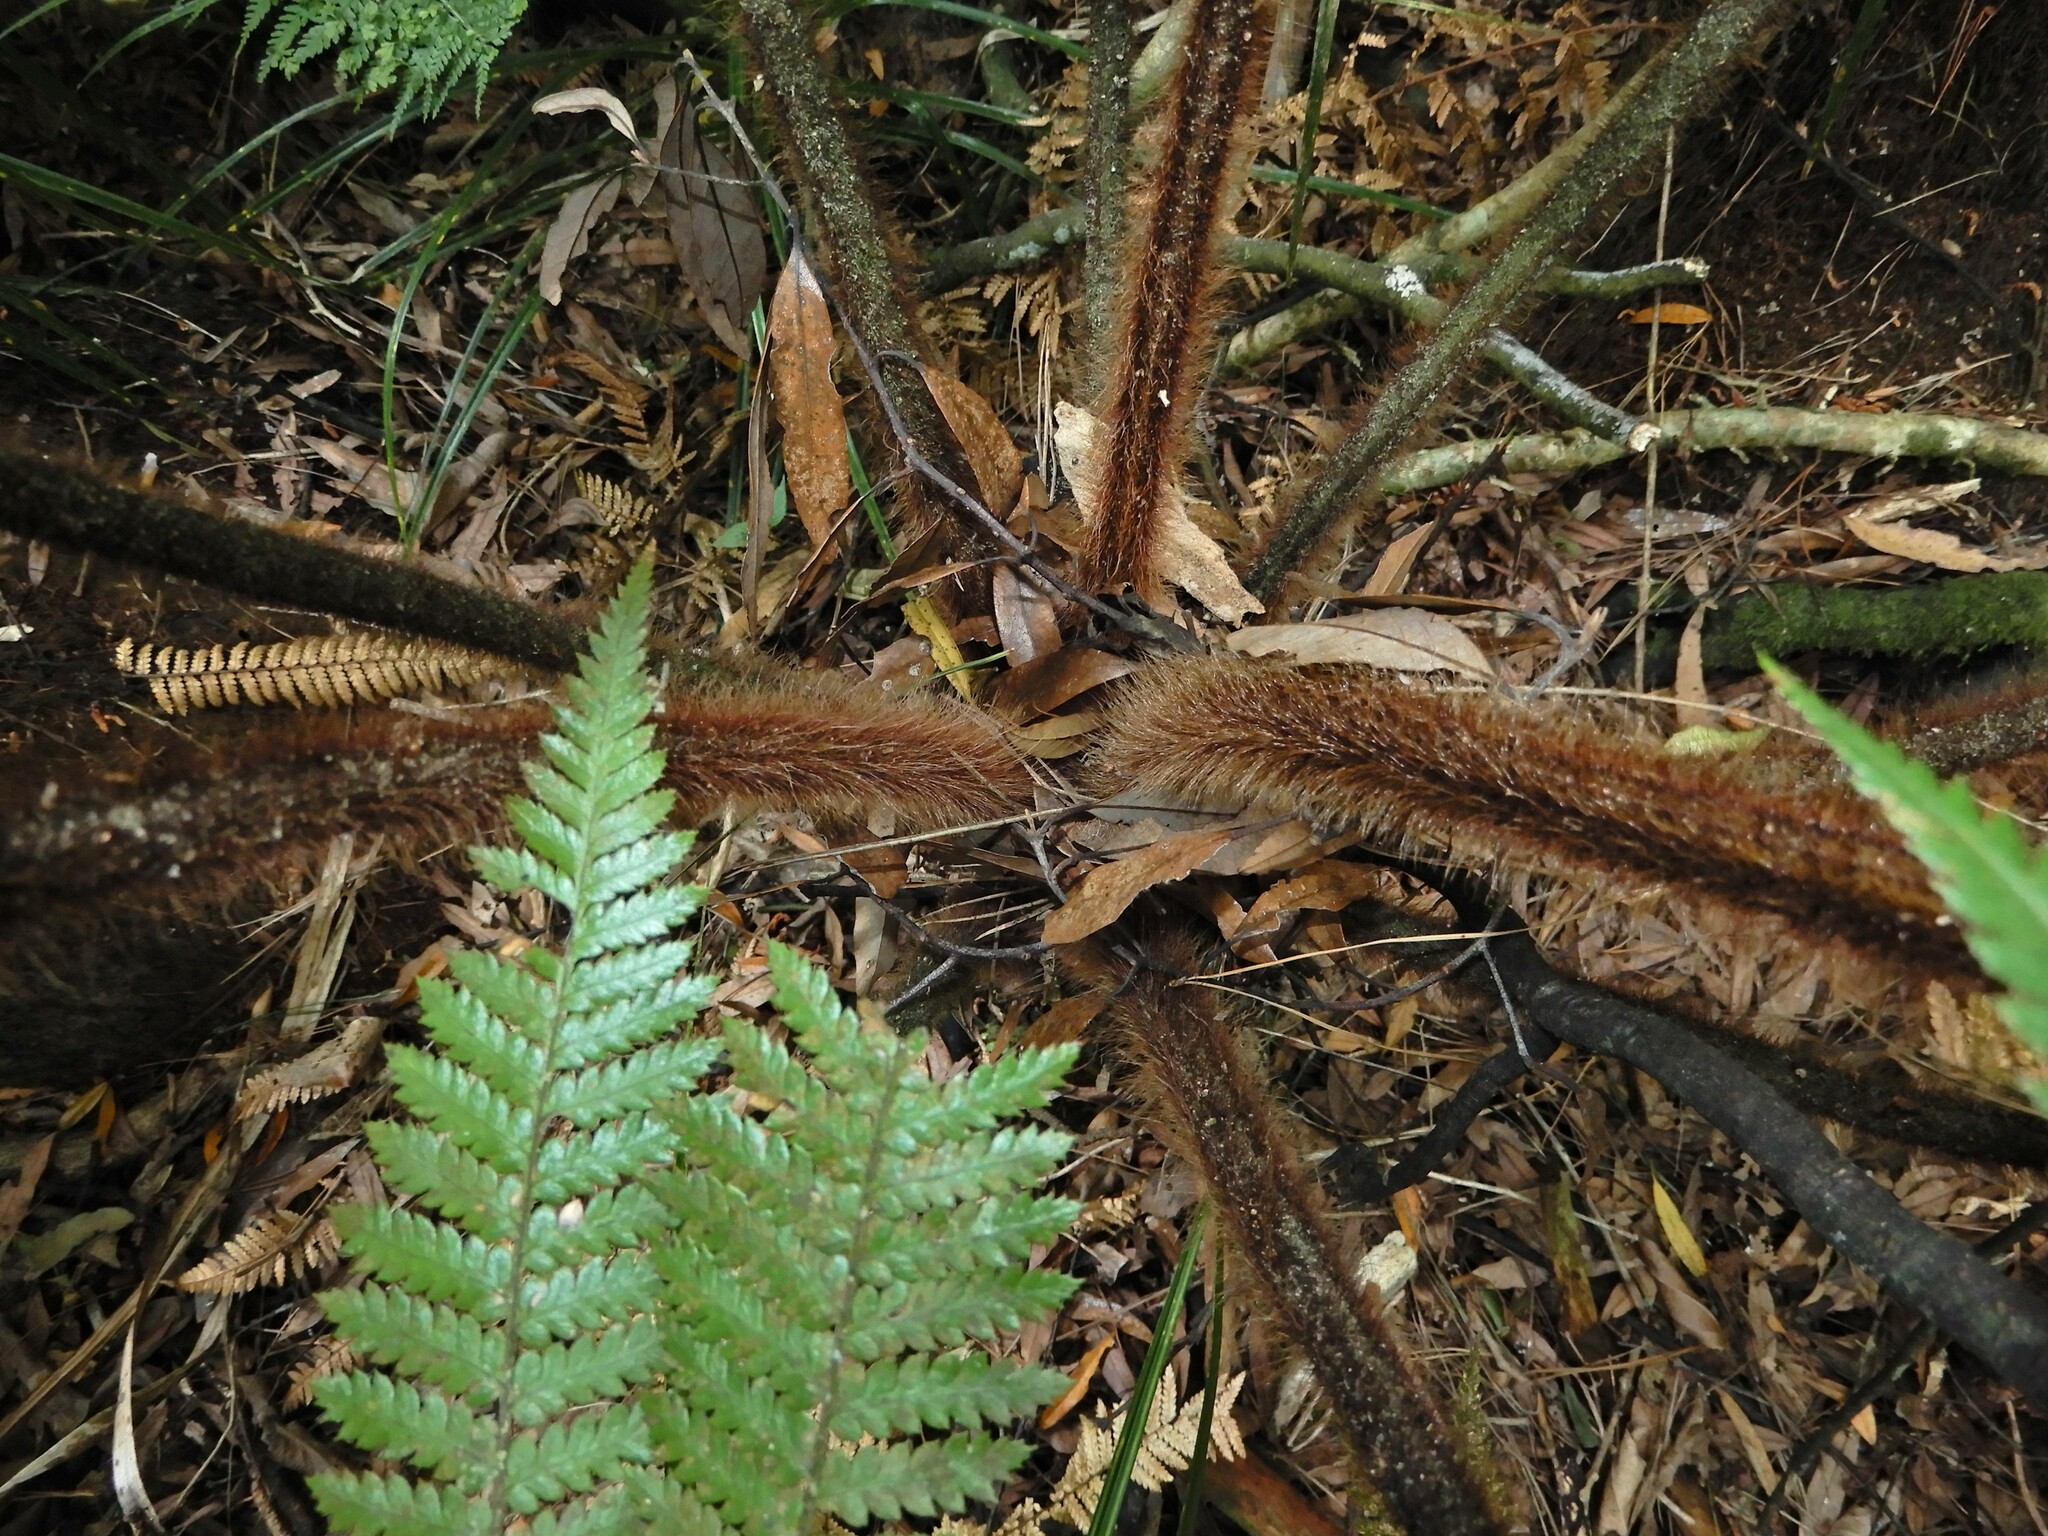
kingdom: Plantae
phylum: Tracheophyta
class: Polypodiopsida
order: Cyatheales
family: Dicksoniaceae
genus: Dicksonia
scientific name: Dicksonia squarrosa
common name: Hard treefern
